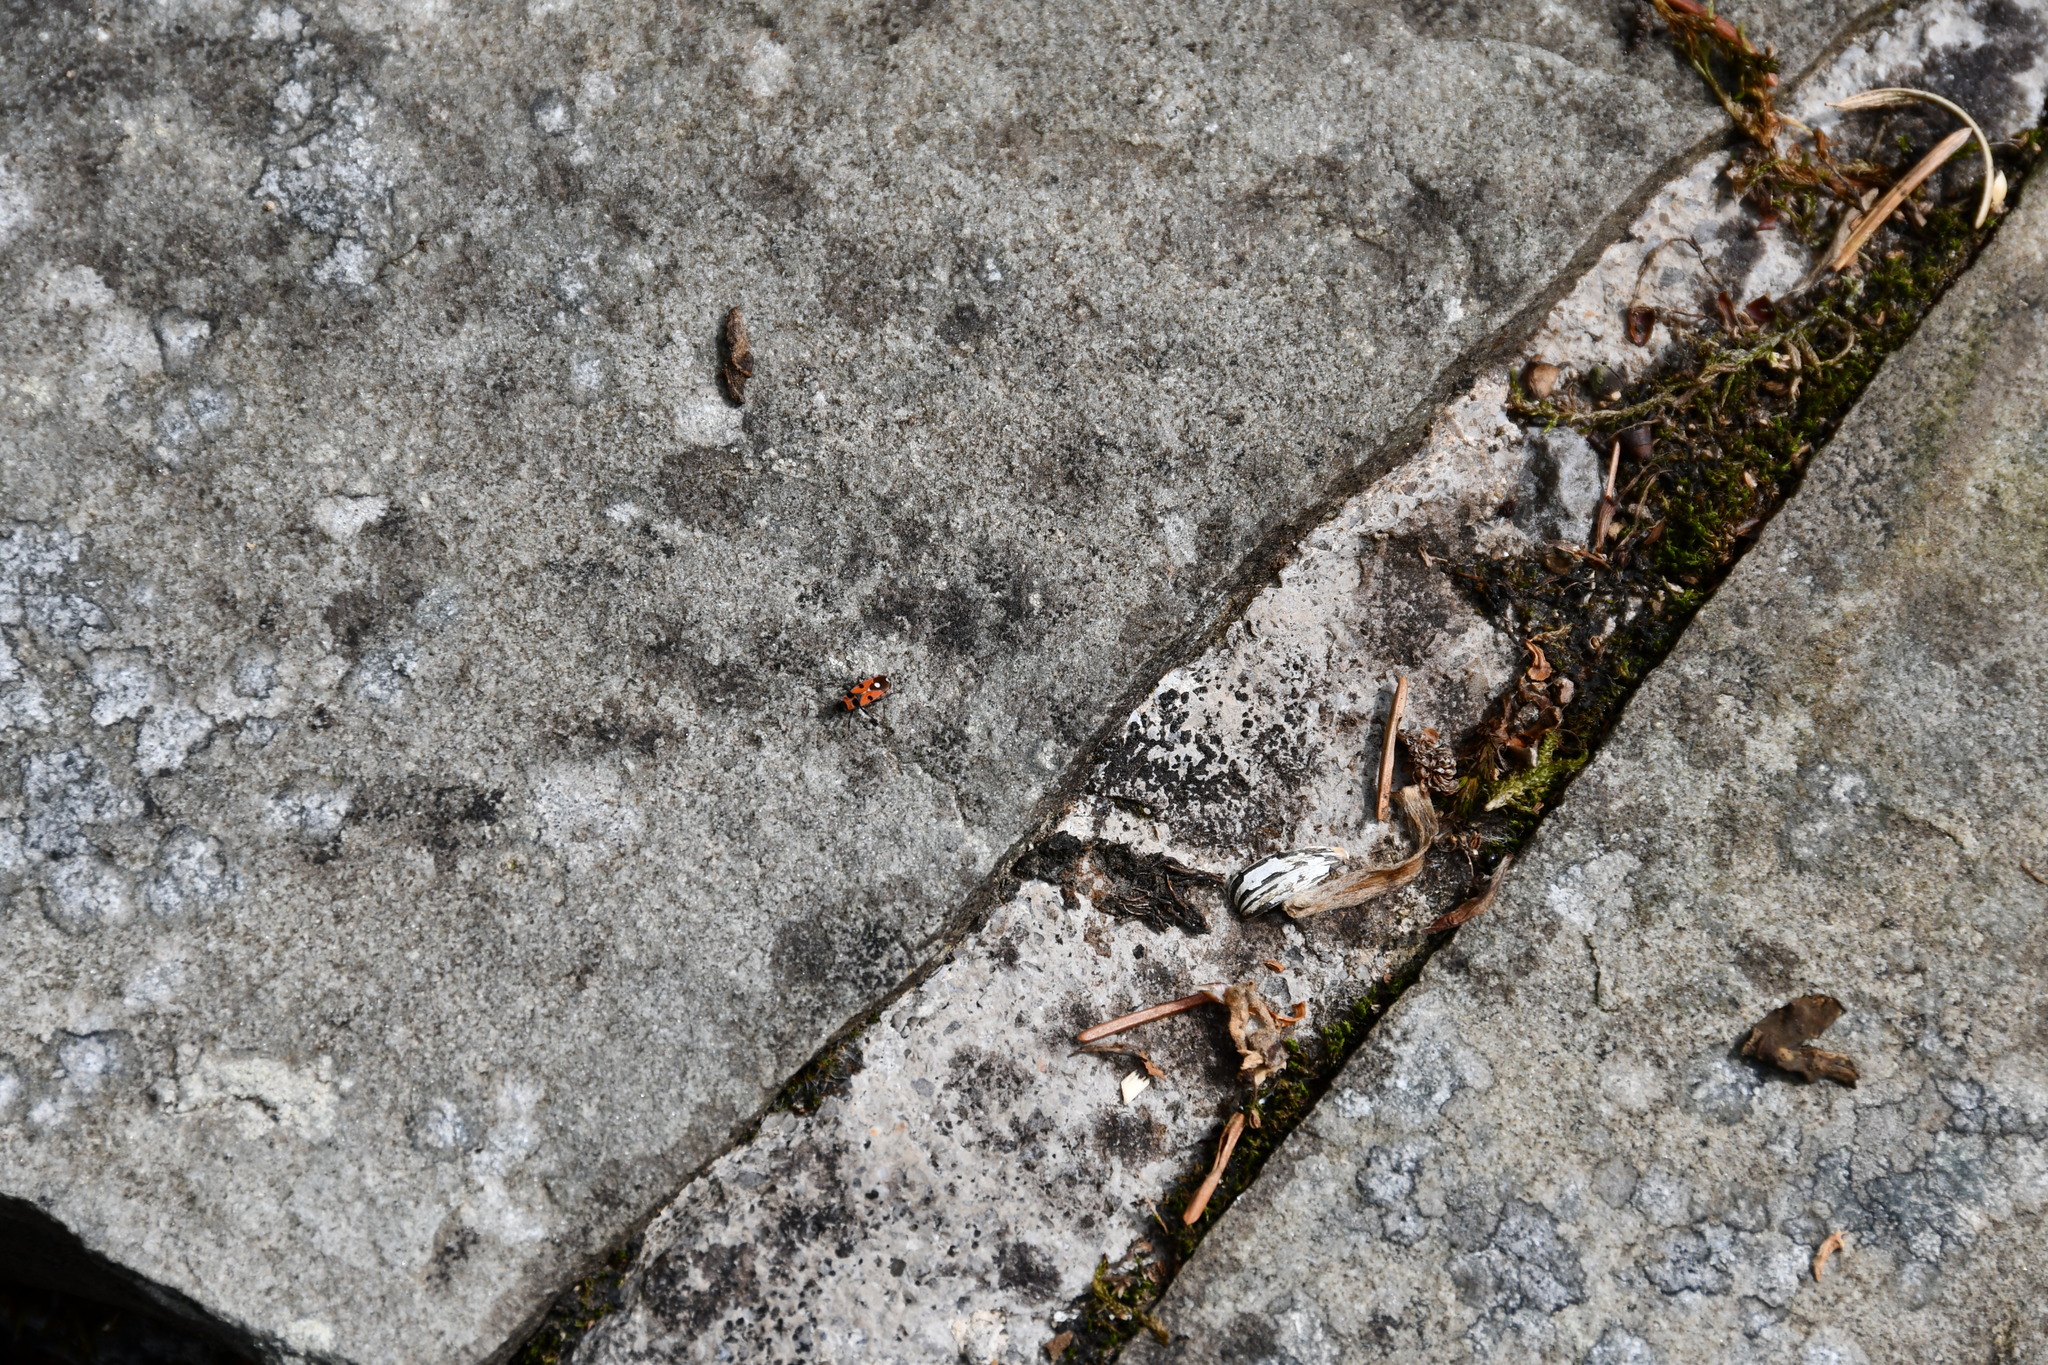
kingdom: Animalia
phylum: Arthropoda
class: Insecta
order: Hemiptera
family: Lygaeidae
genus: Horvathiolus
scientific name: Horvathiolus superbus
